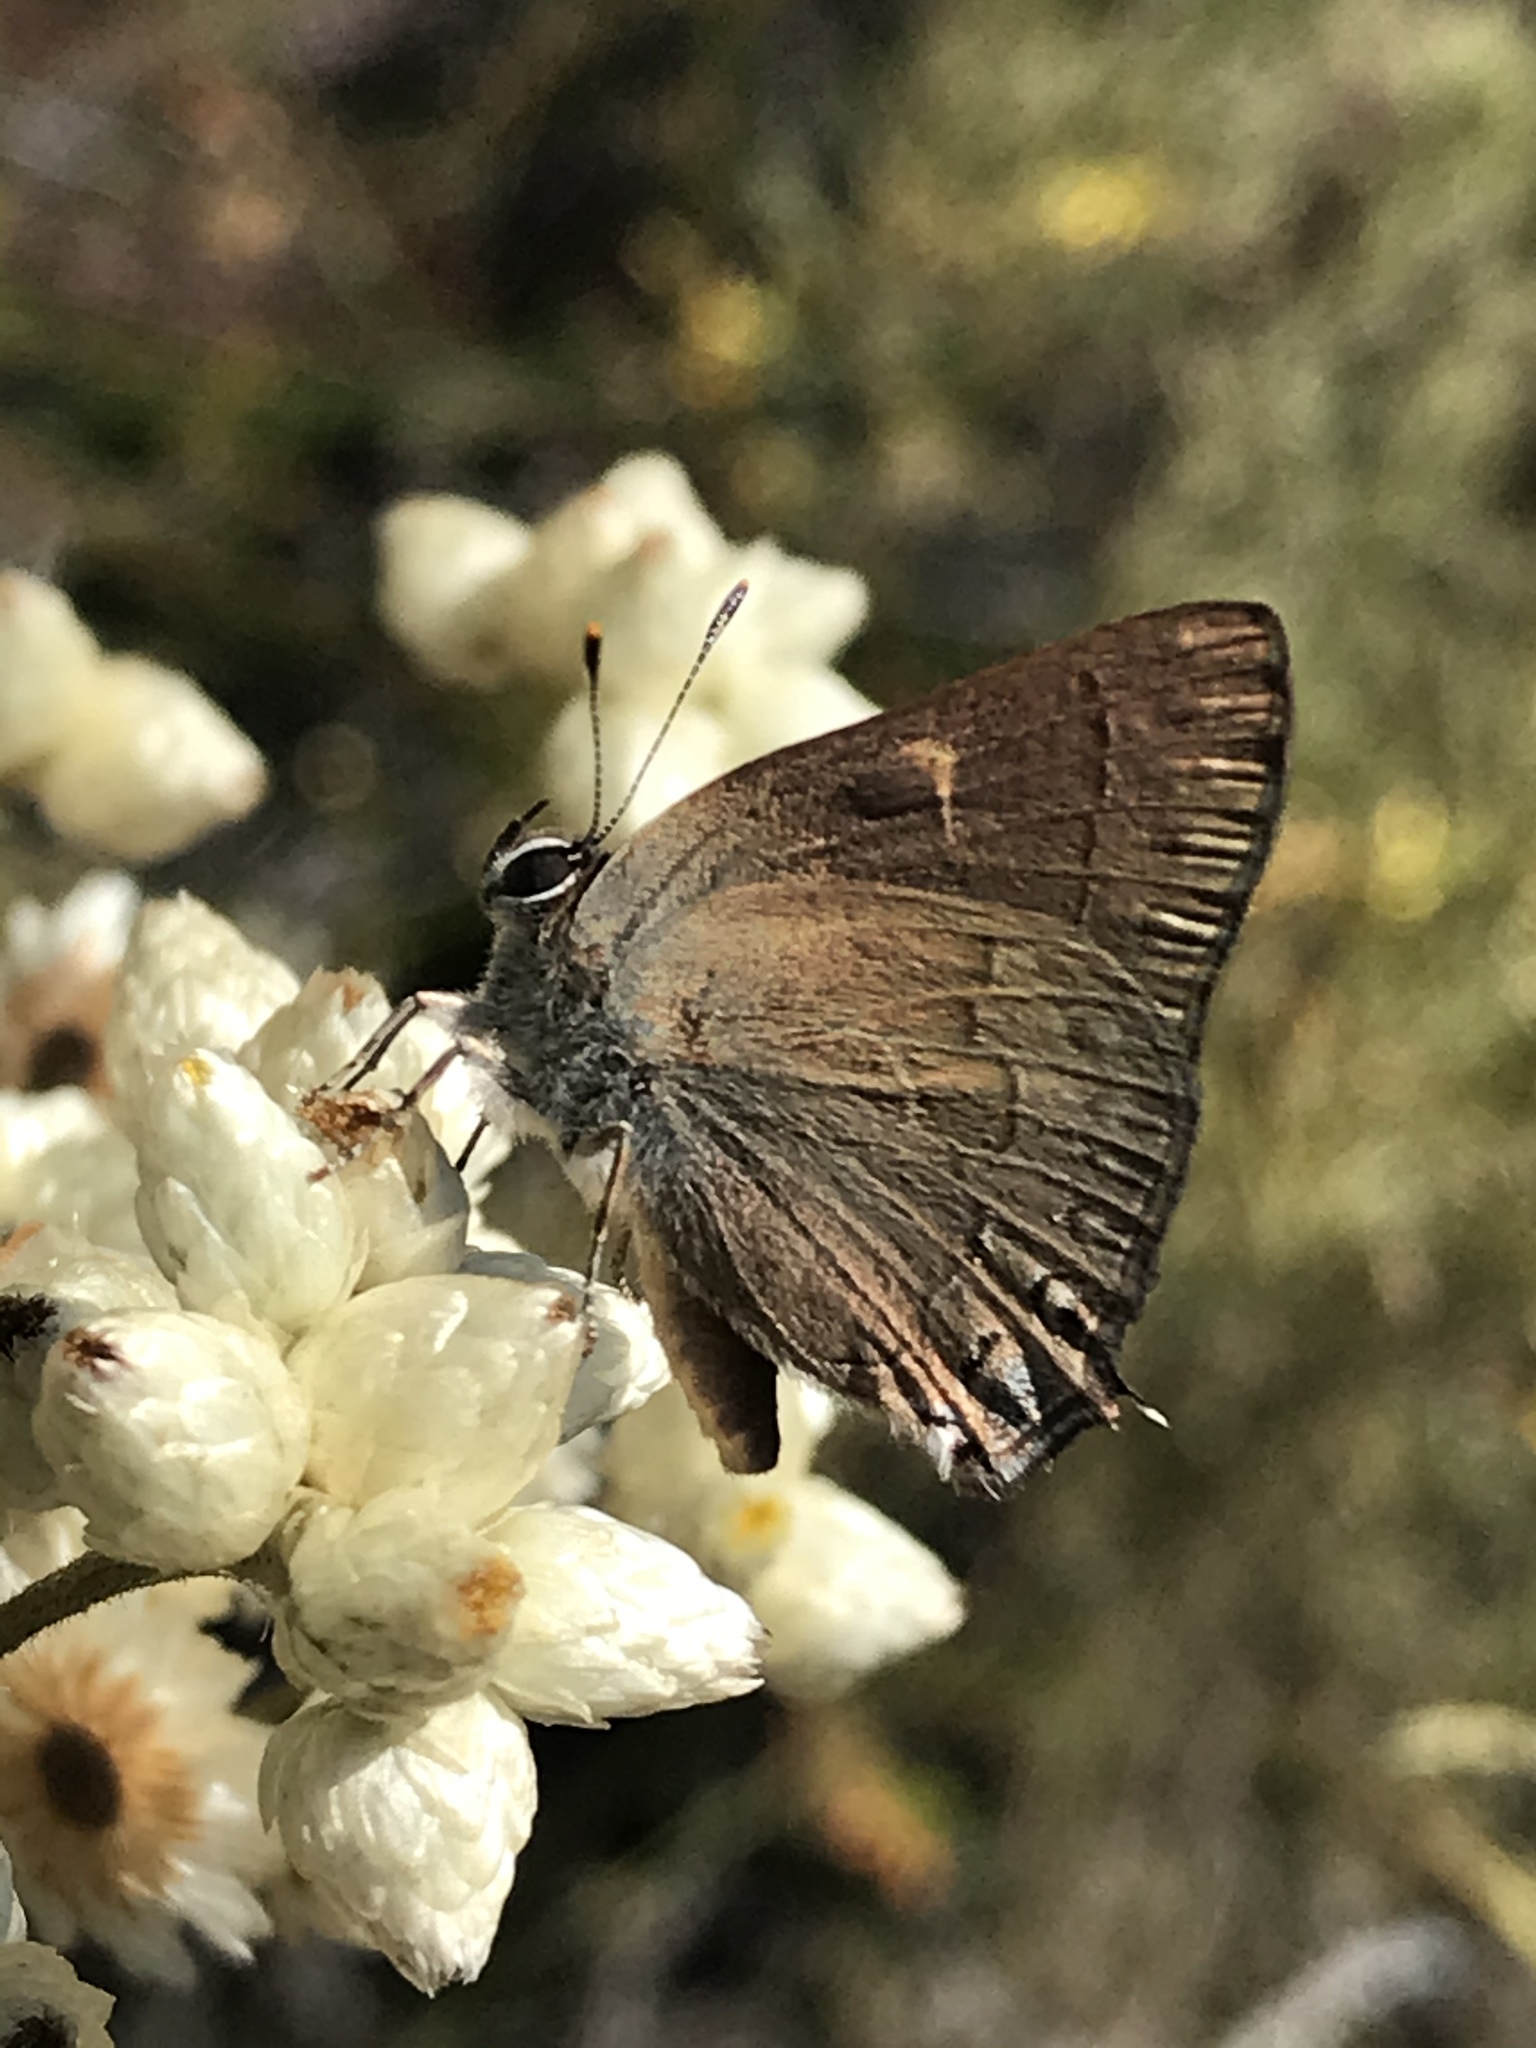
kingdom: Animalia
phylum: Arthropoda
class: Insecta
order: Lepidoptera
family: Lycaenidae
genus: Strymon
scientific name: Strymon saepium
